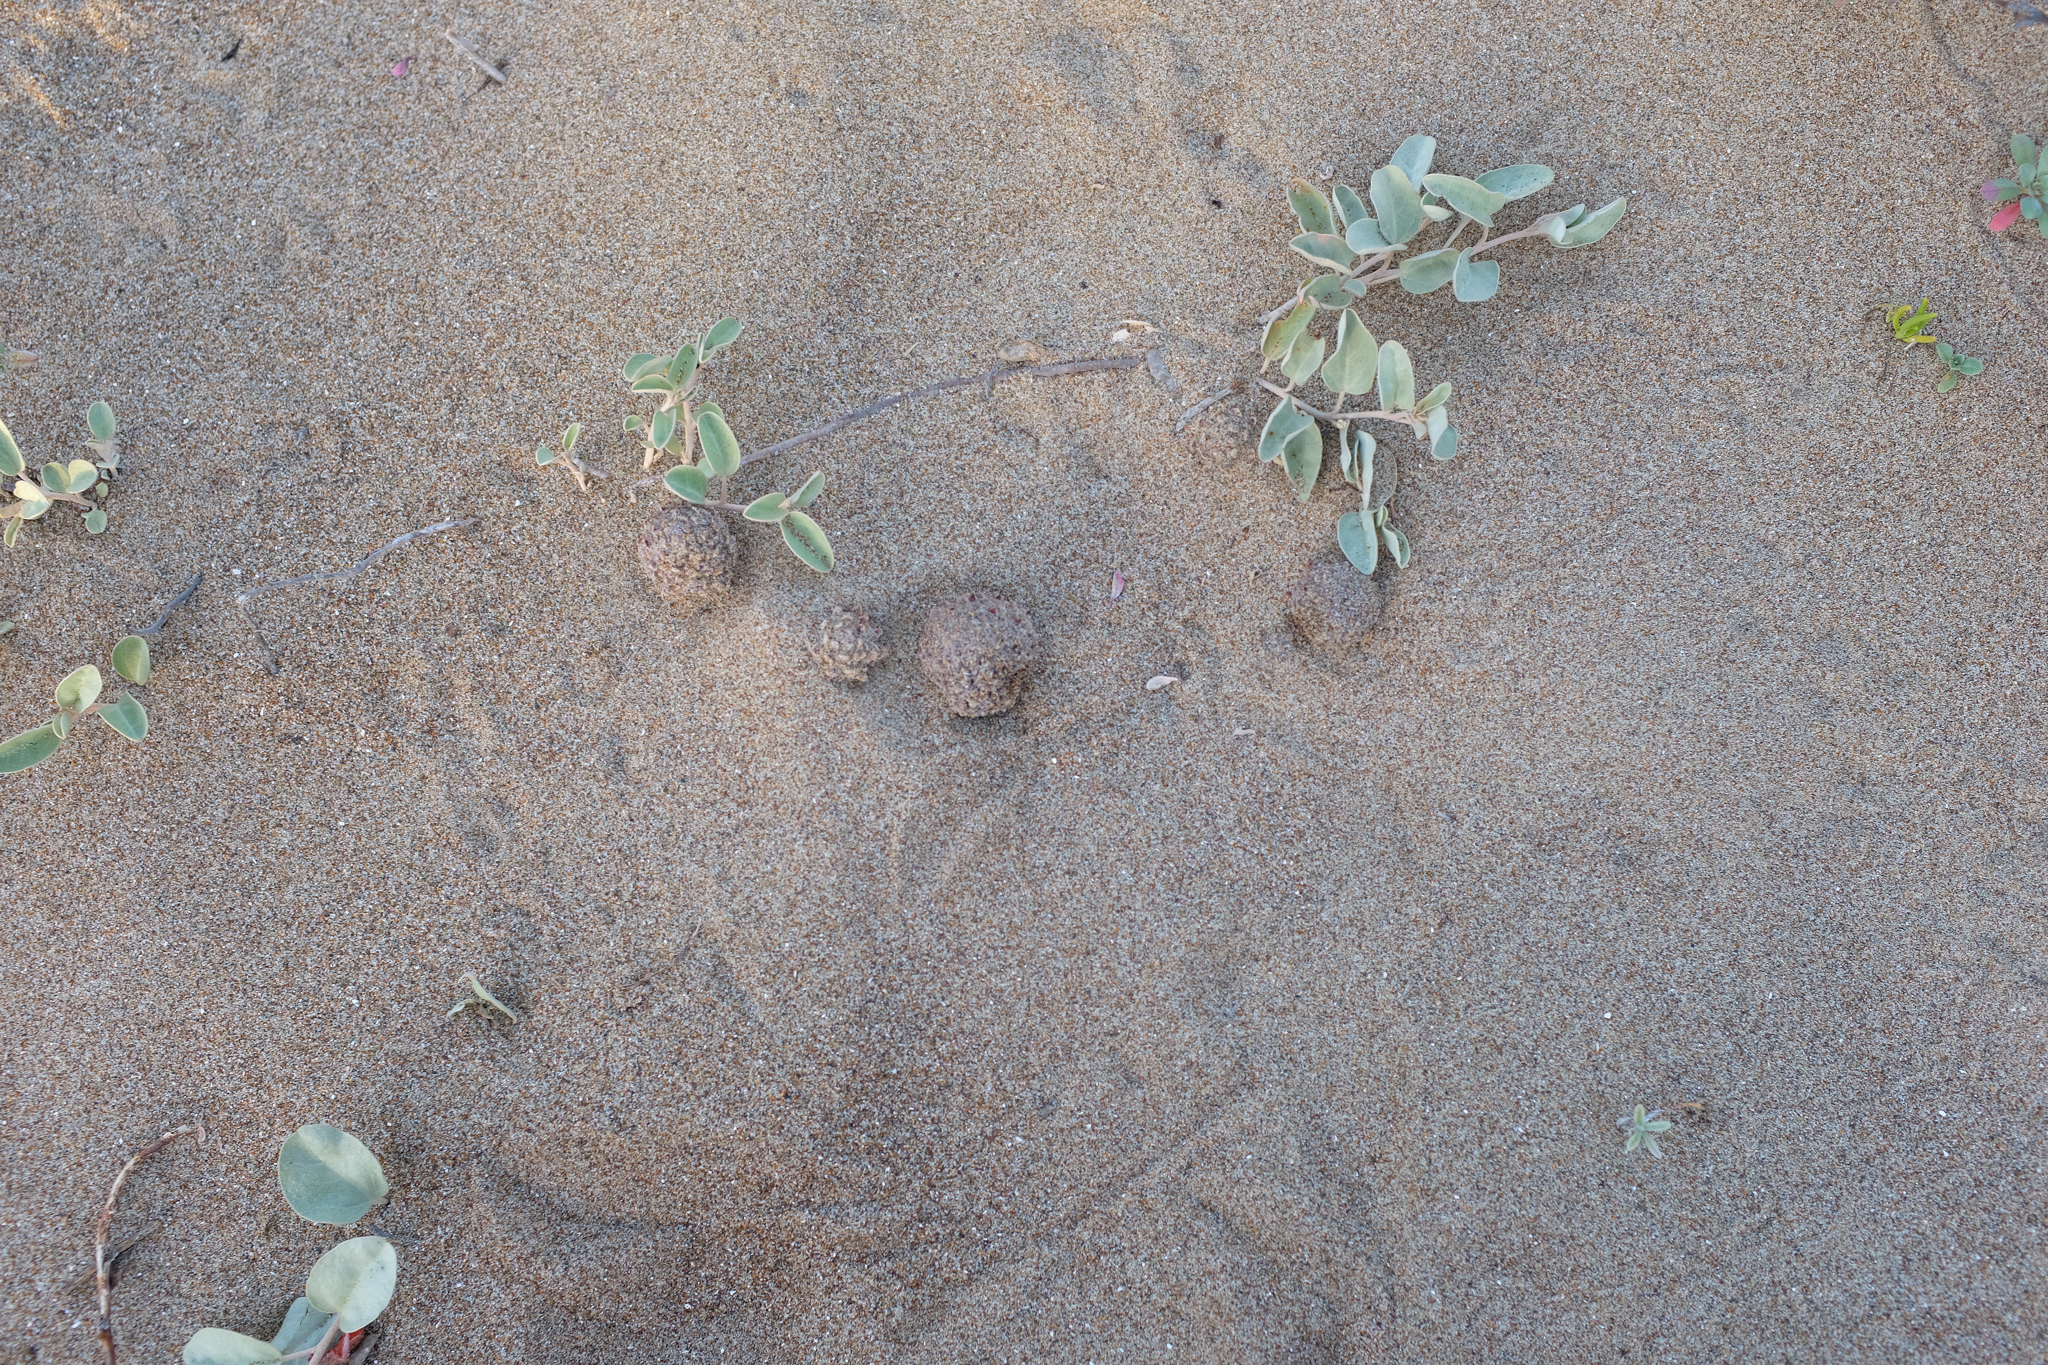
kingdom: Plantae
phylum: Tracheophyta
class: Magnoliopsida
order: Boraginales
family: Lennoaceae
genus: Pholisma
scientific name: Pholisma arenarium
